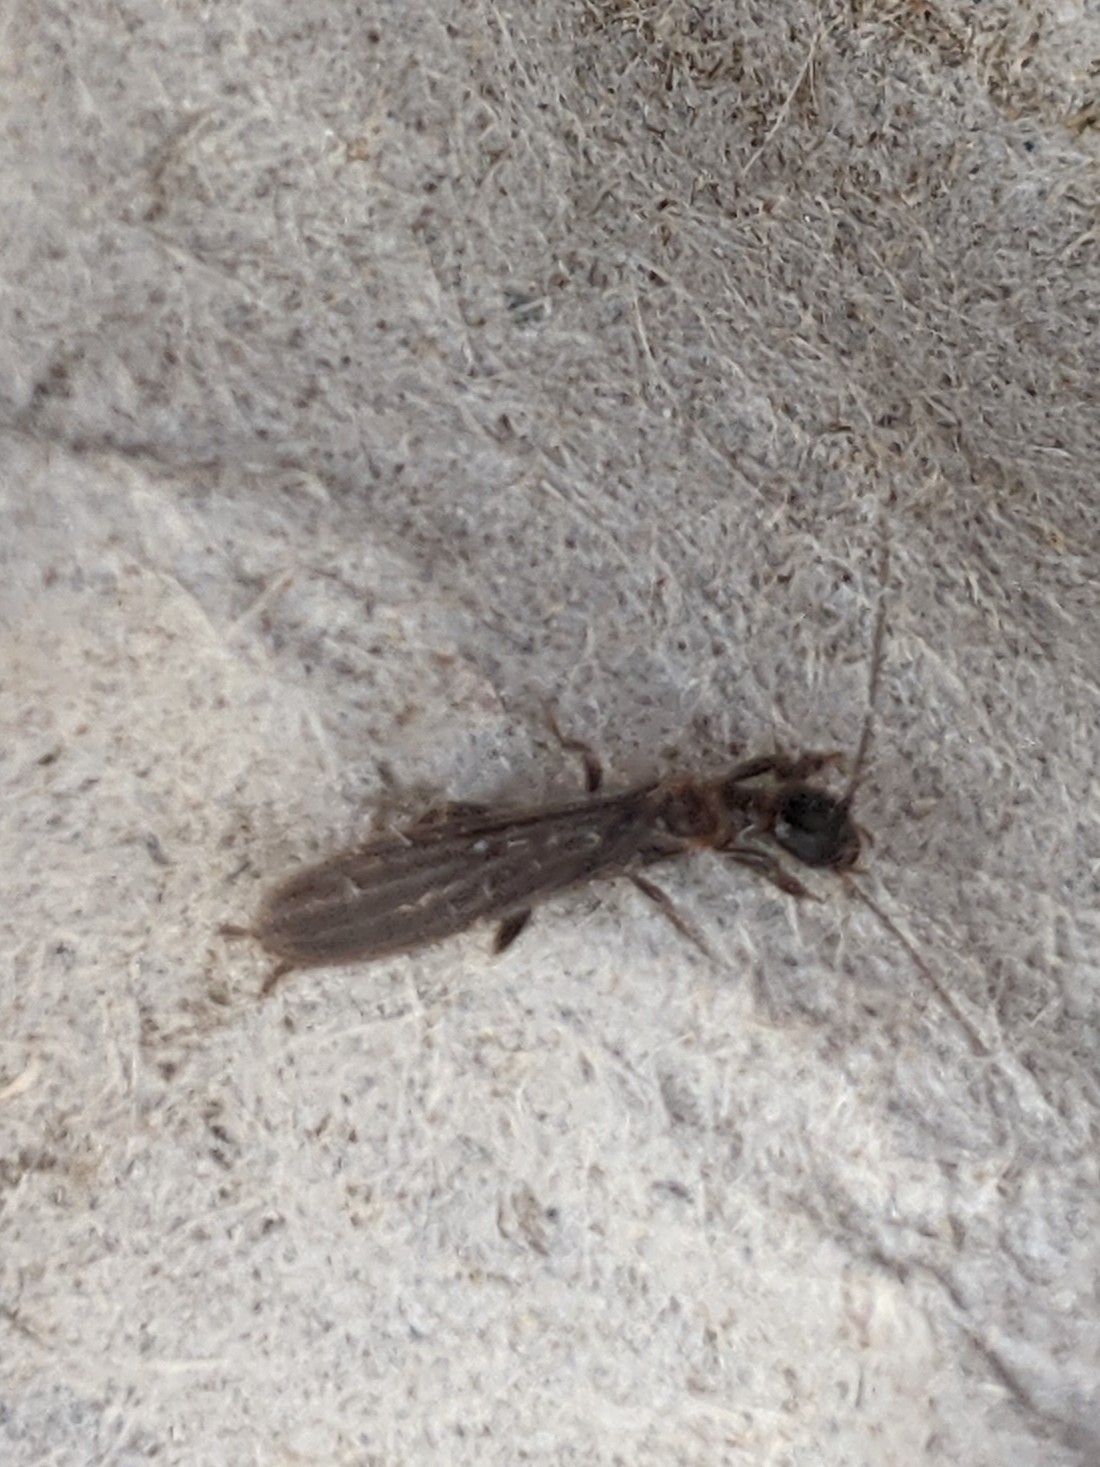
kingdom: Animalia
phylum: Arthropoda
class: Insecta
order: Embioptera
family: Oligotomidae
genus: Oligotoma
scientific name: Oligotoma nigra
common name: Black webspinner
